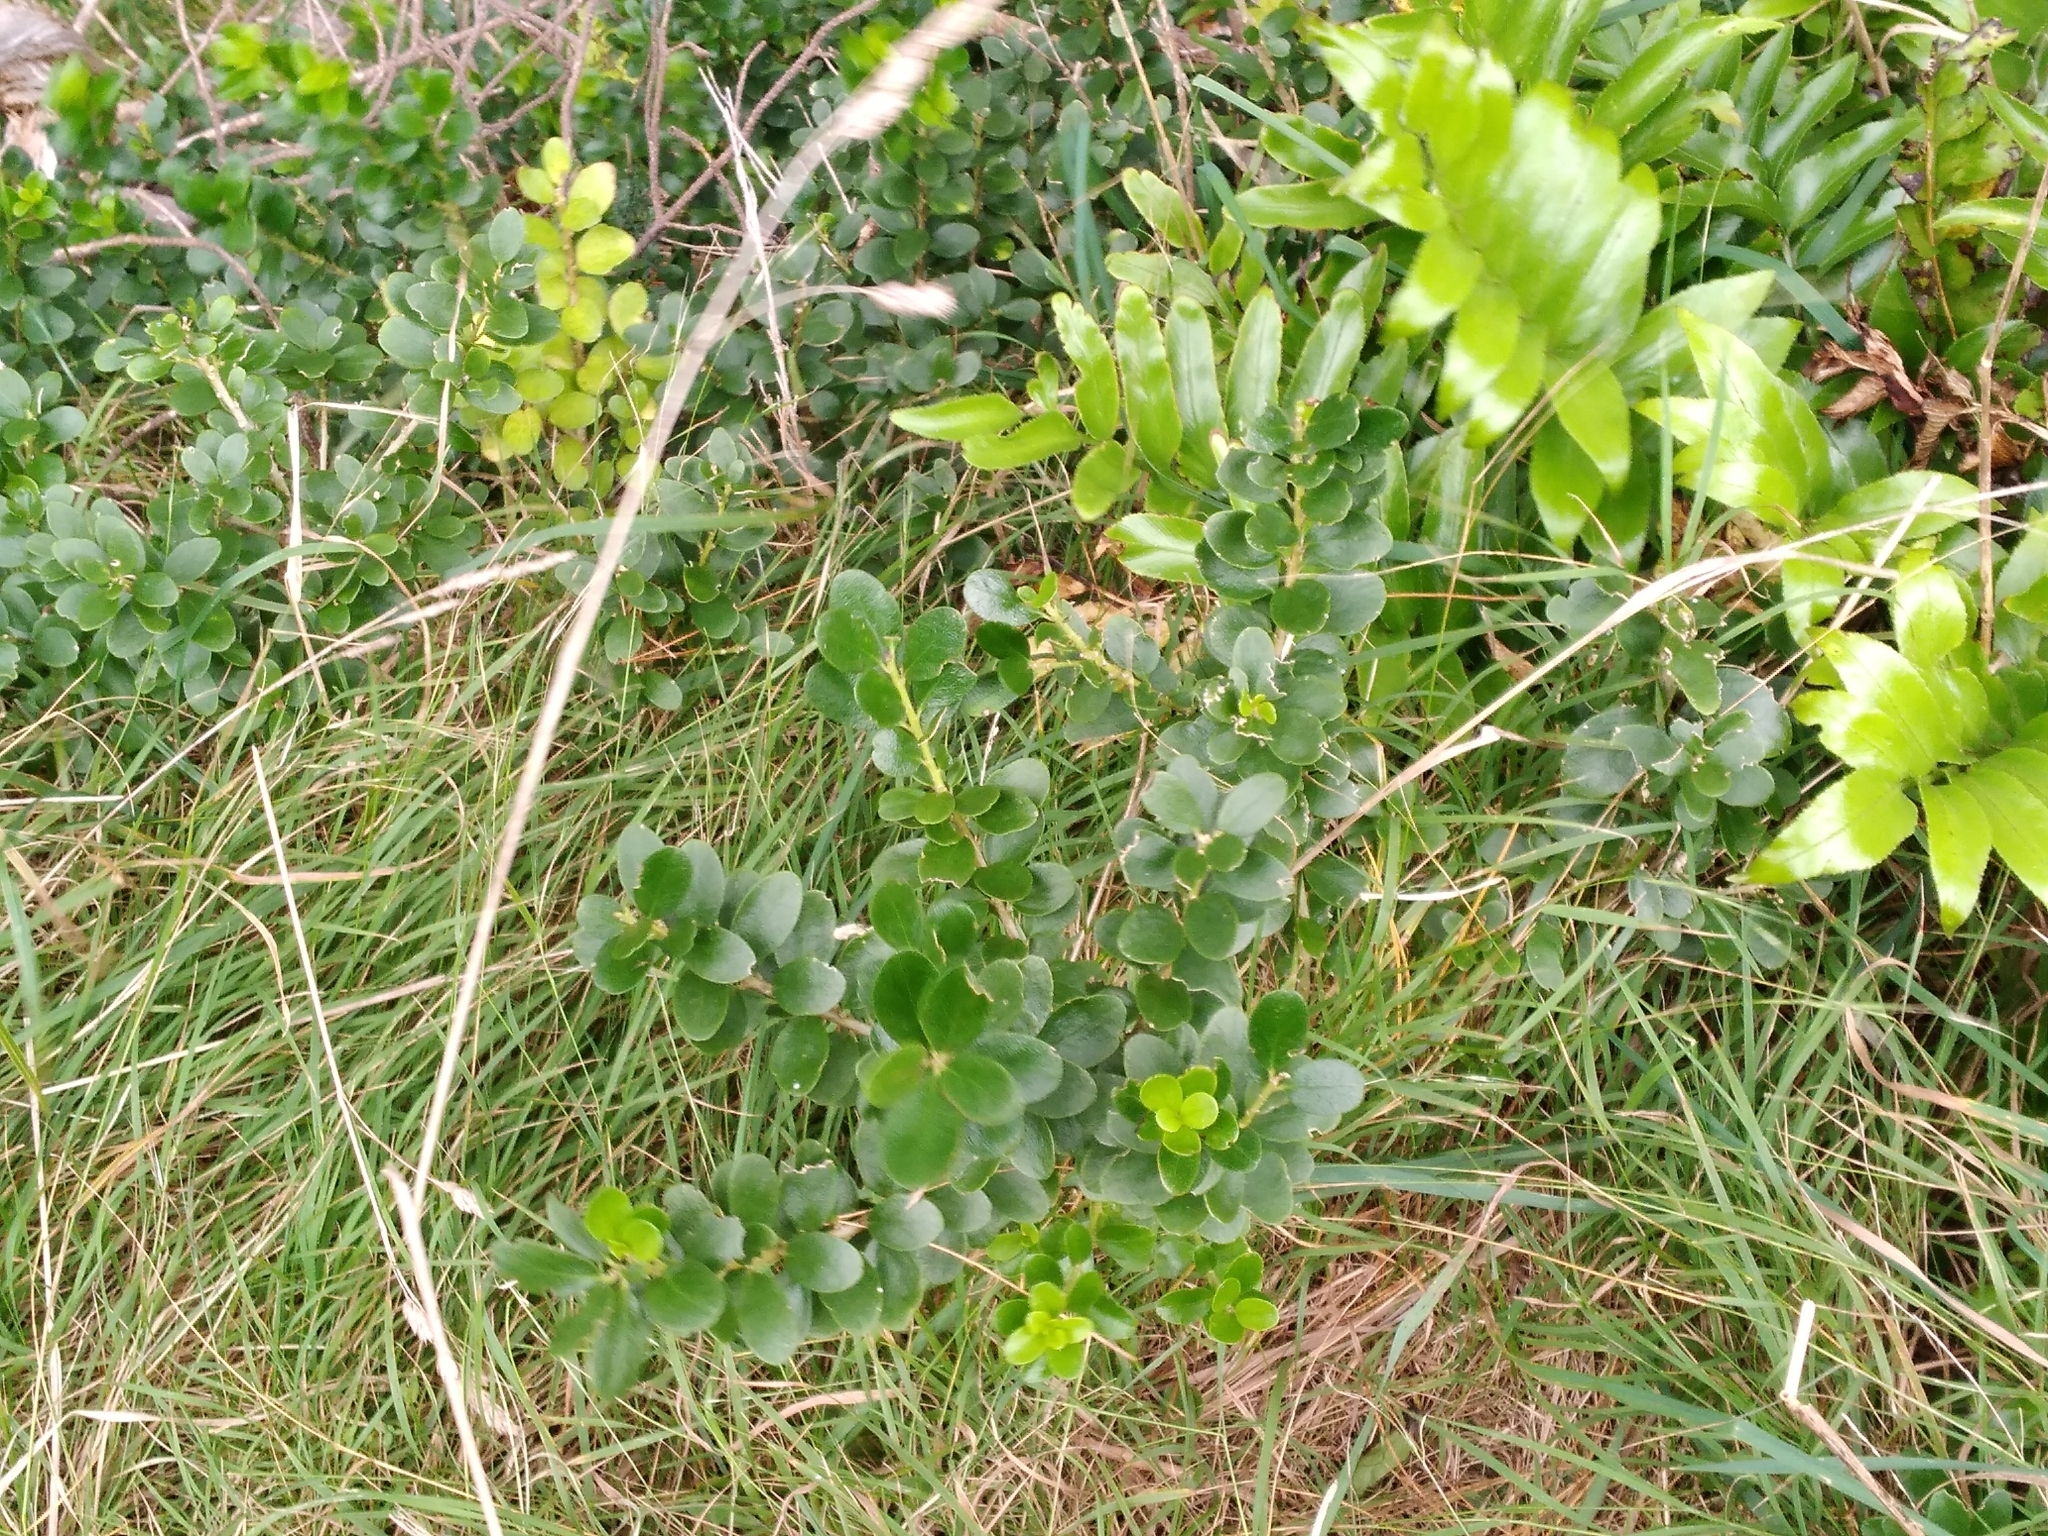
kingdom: Plantae
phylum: Tracheophyta
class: Magnoliopsida
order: Malpighiales
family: Violaceae
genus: Melicytus
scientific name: Melicytus orarius
